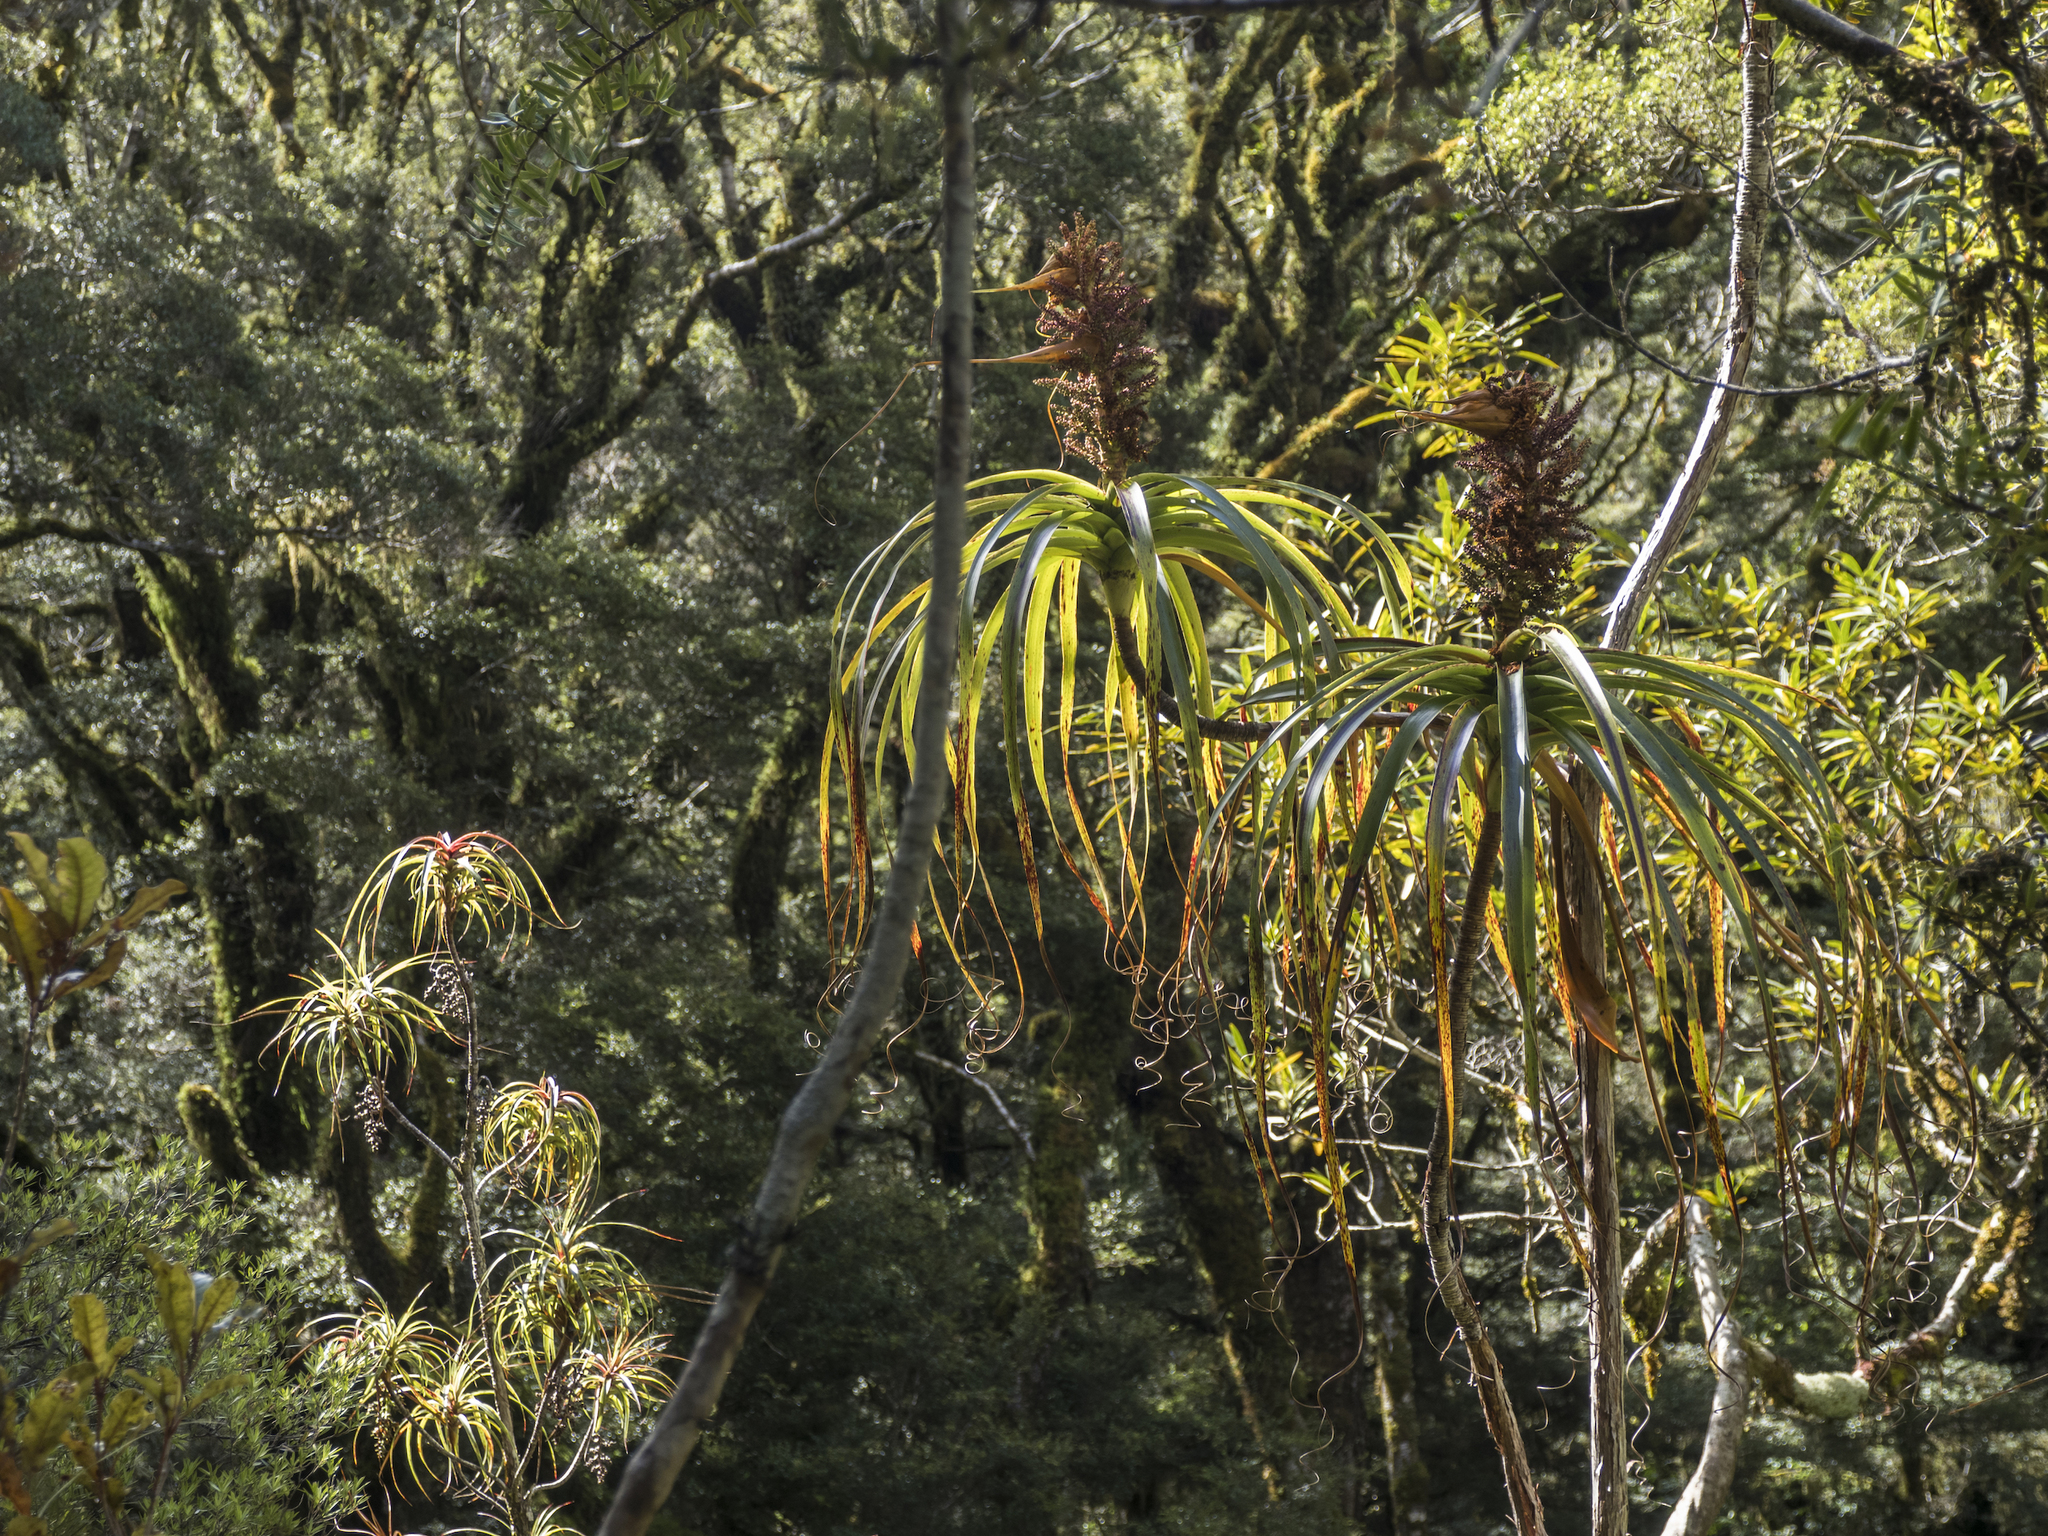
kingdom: Plantae
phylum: Tracheophyta
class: Magnoliopsida
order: Ericales
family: Ericaceae
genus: Dracophyllum
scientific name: Dracophyllum townsonii
